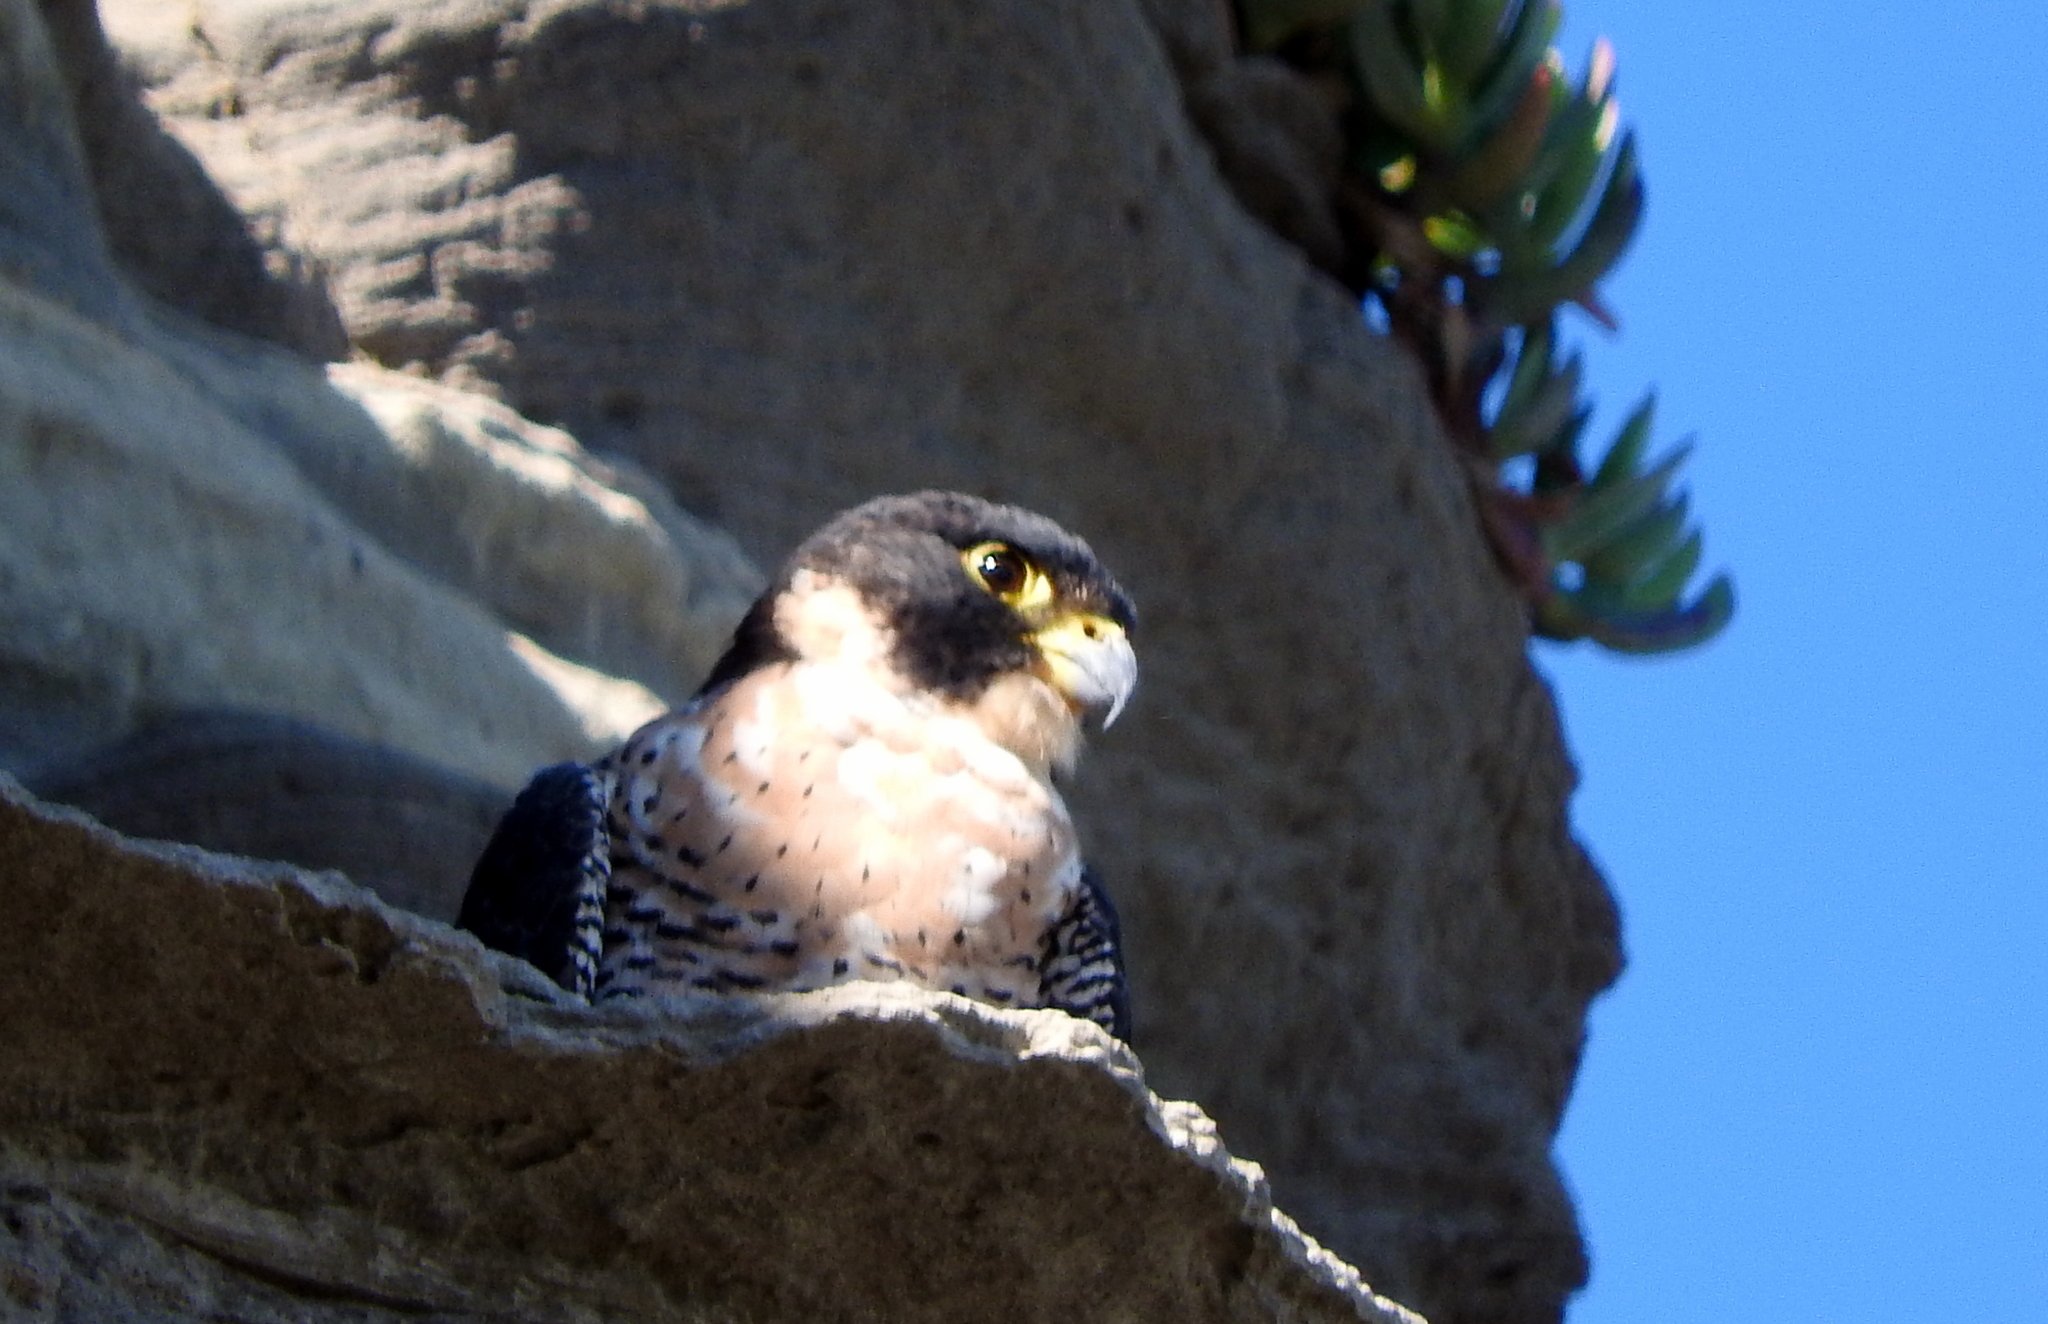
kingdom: Animalia
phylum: Chordata
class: Aves
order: Falconiformes
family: Falconidae
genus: Falco
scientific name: Falco peregrinus
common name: Peregrine falcon
